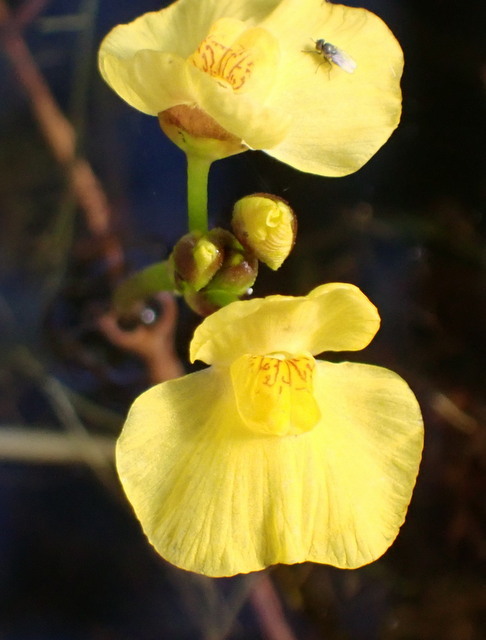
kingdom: Plantae
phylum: Tracheophyta
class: Magnoliopsida
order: Lamiales
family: Lentibulariaceae
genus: Utricularia
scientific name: Utricularia foliosa
